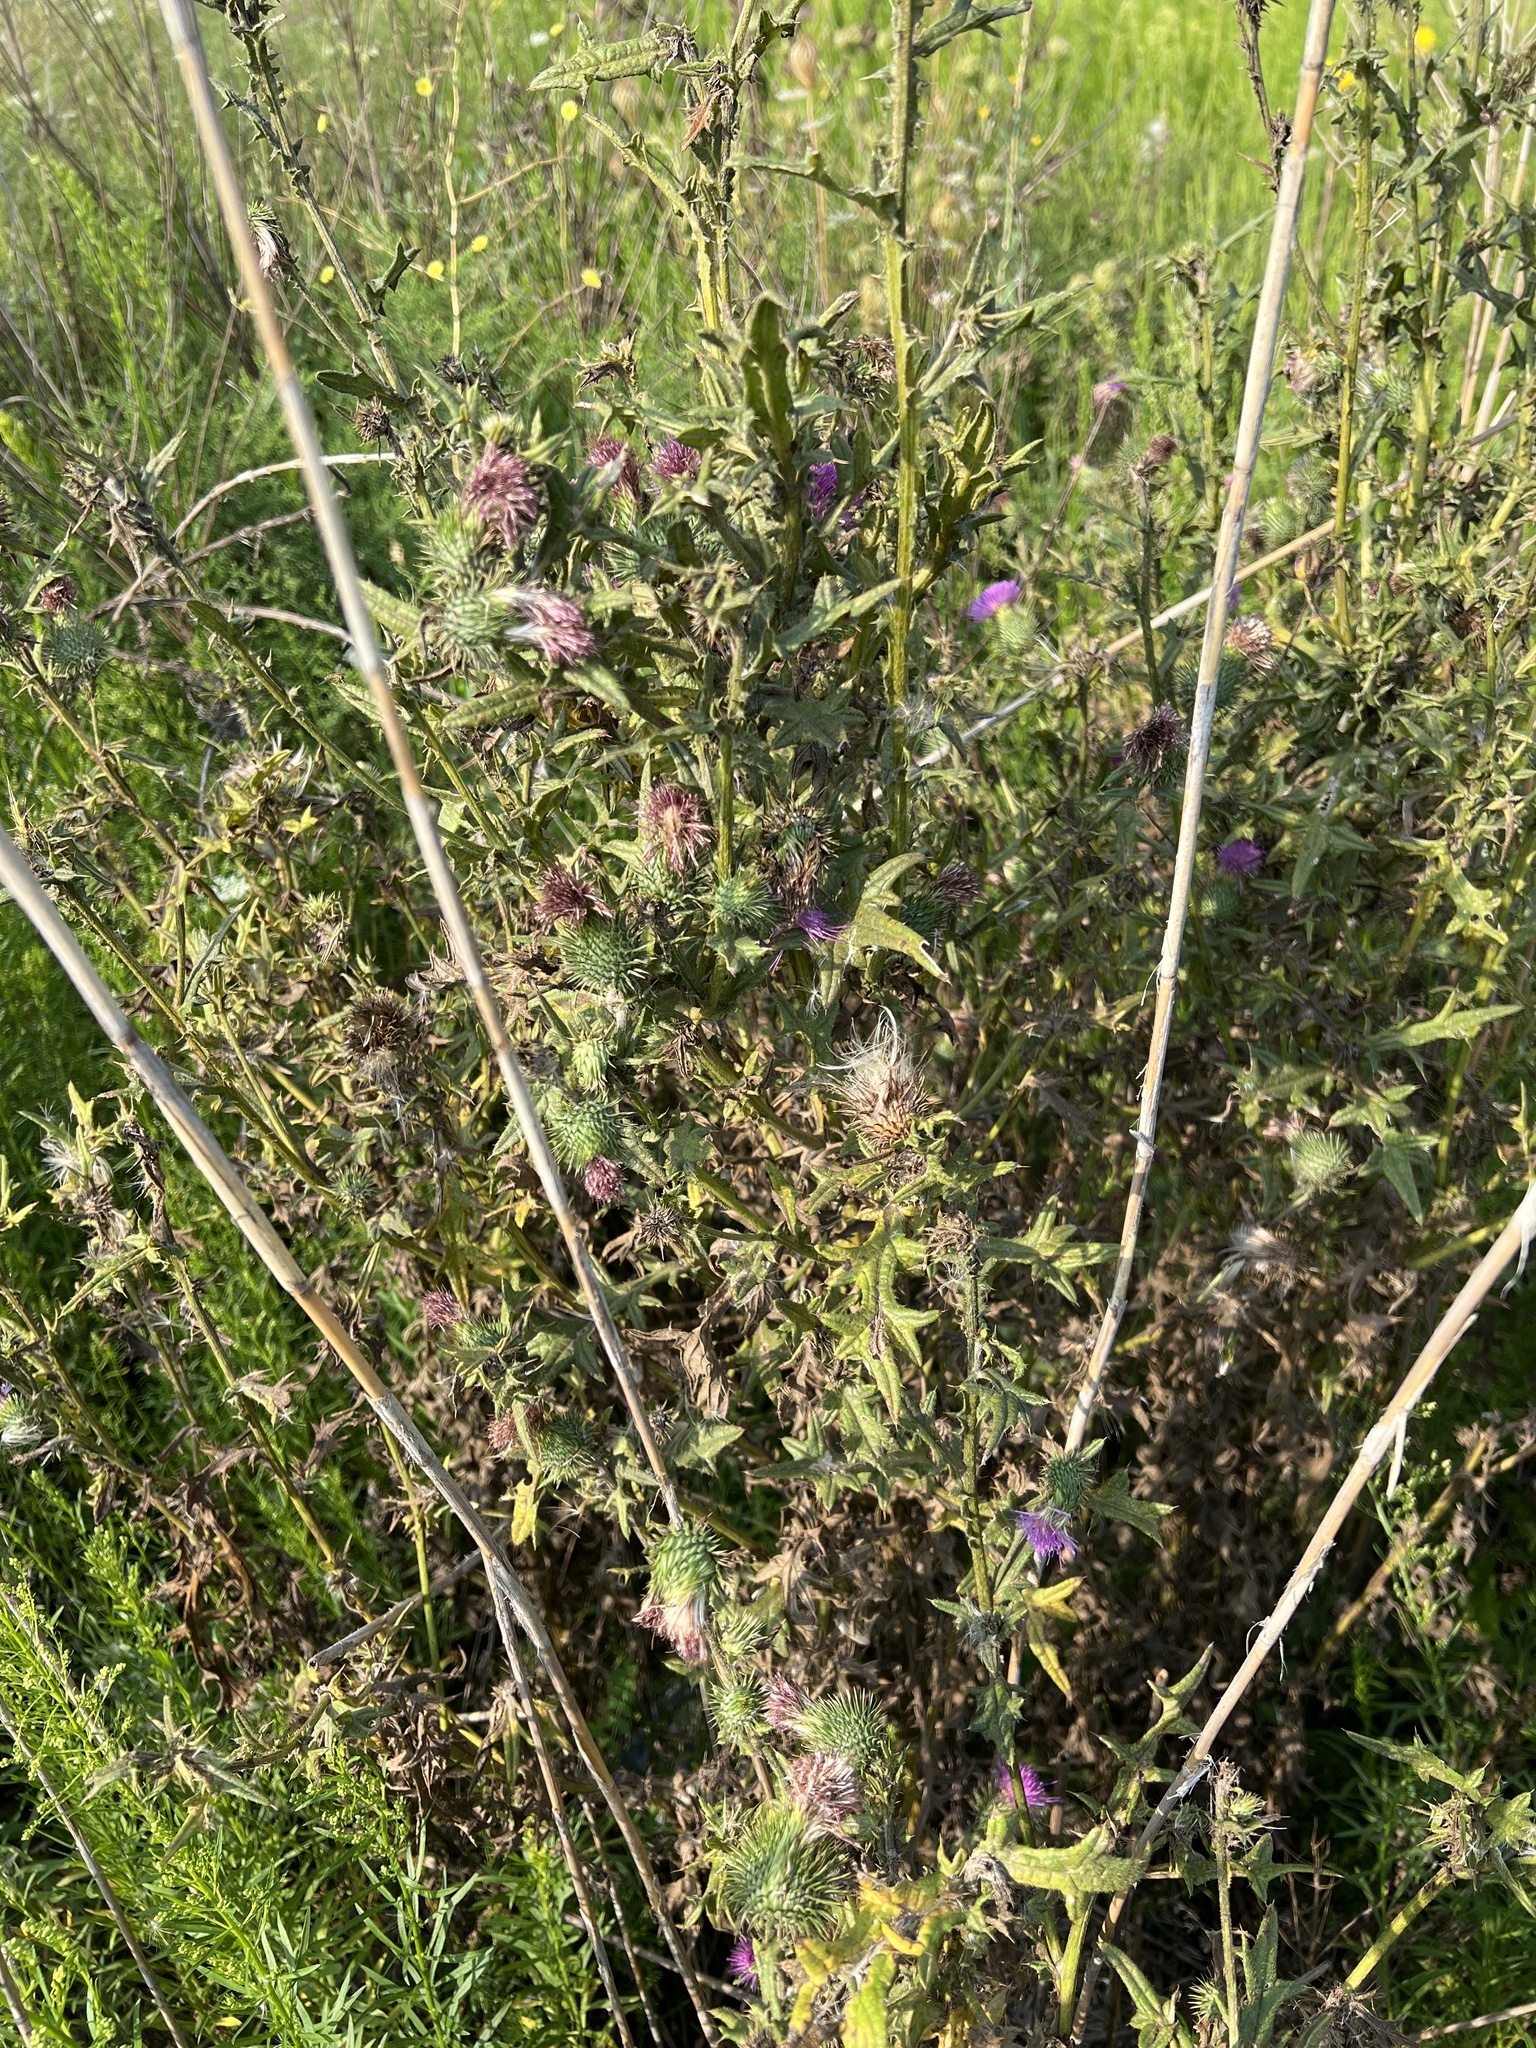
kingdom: Plantae
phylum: Tracheophyta
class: Magnoliopsida
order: Asterales
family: Asteraceae
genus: Cirsium
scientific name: Cirsium vulgare
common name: Bull thistle
